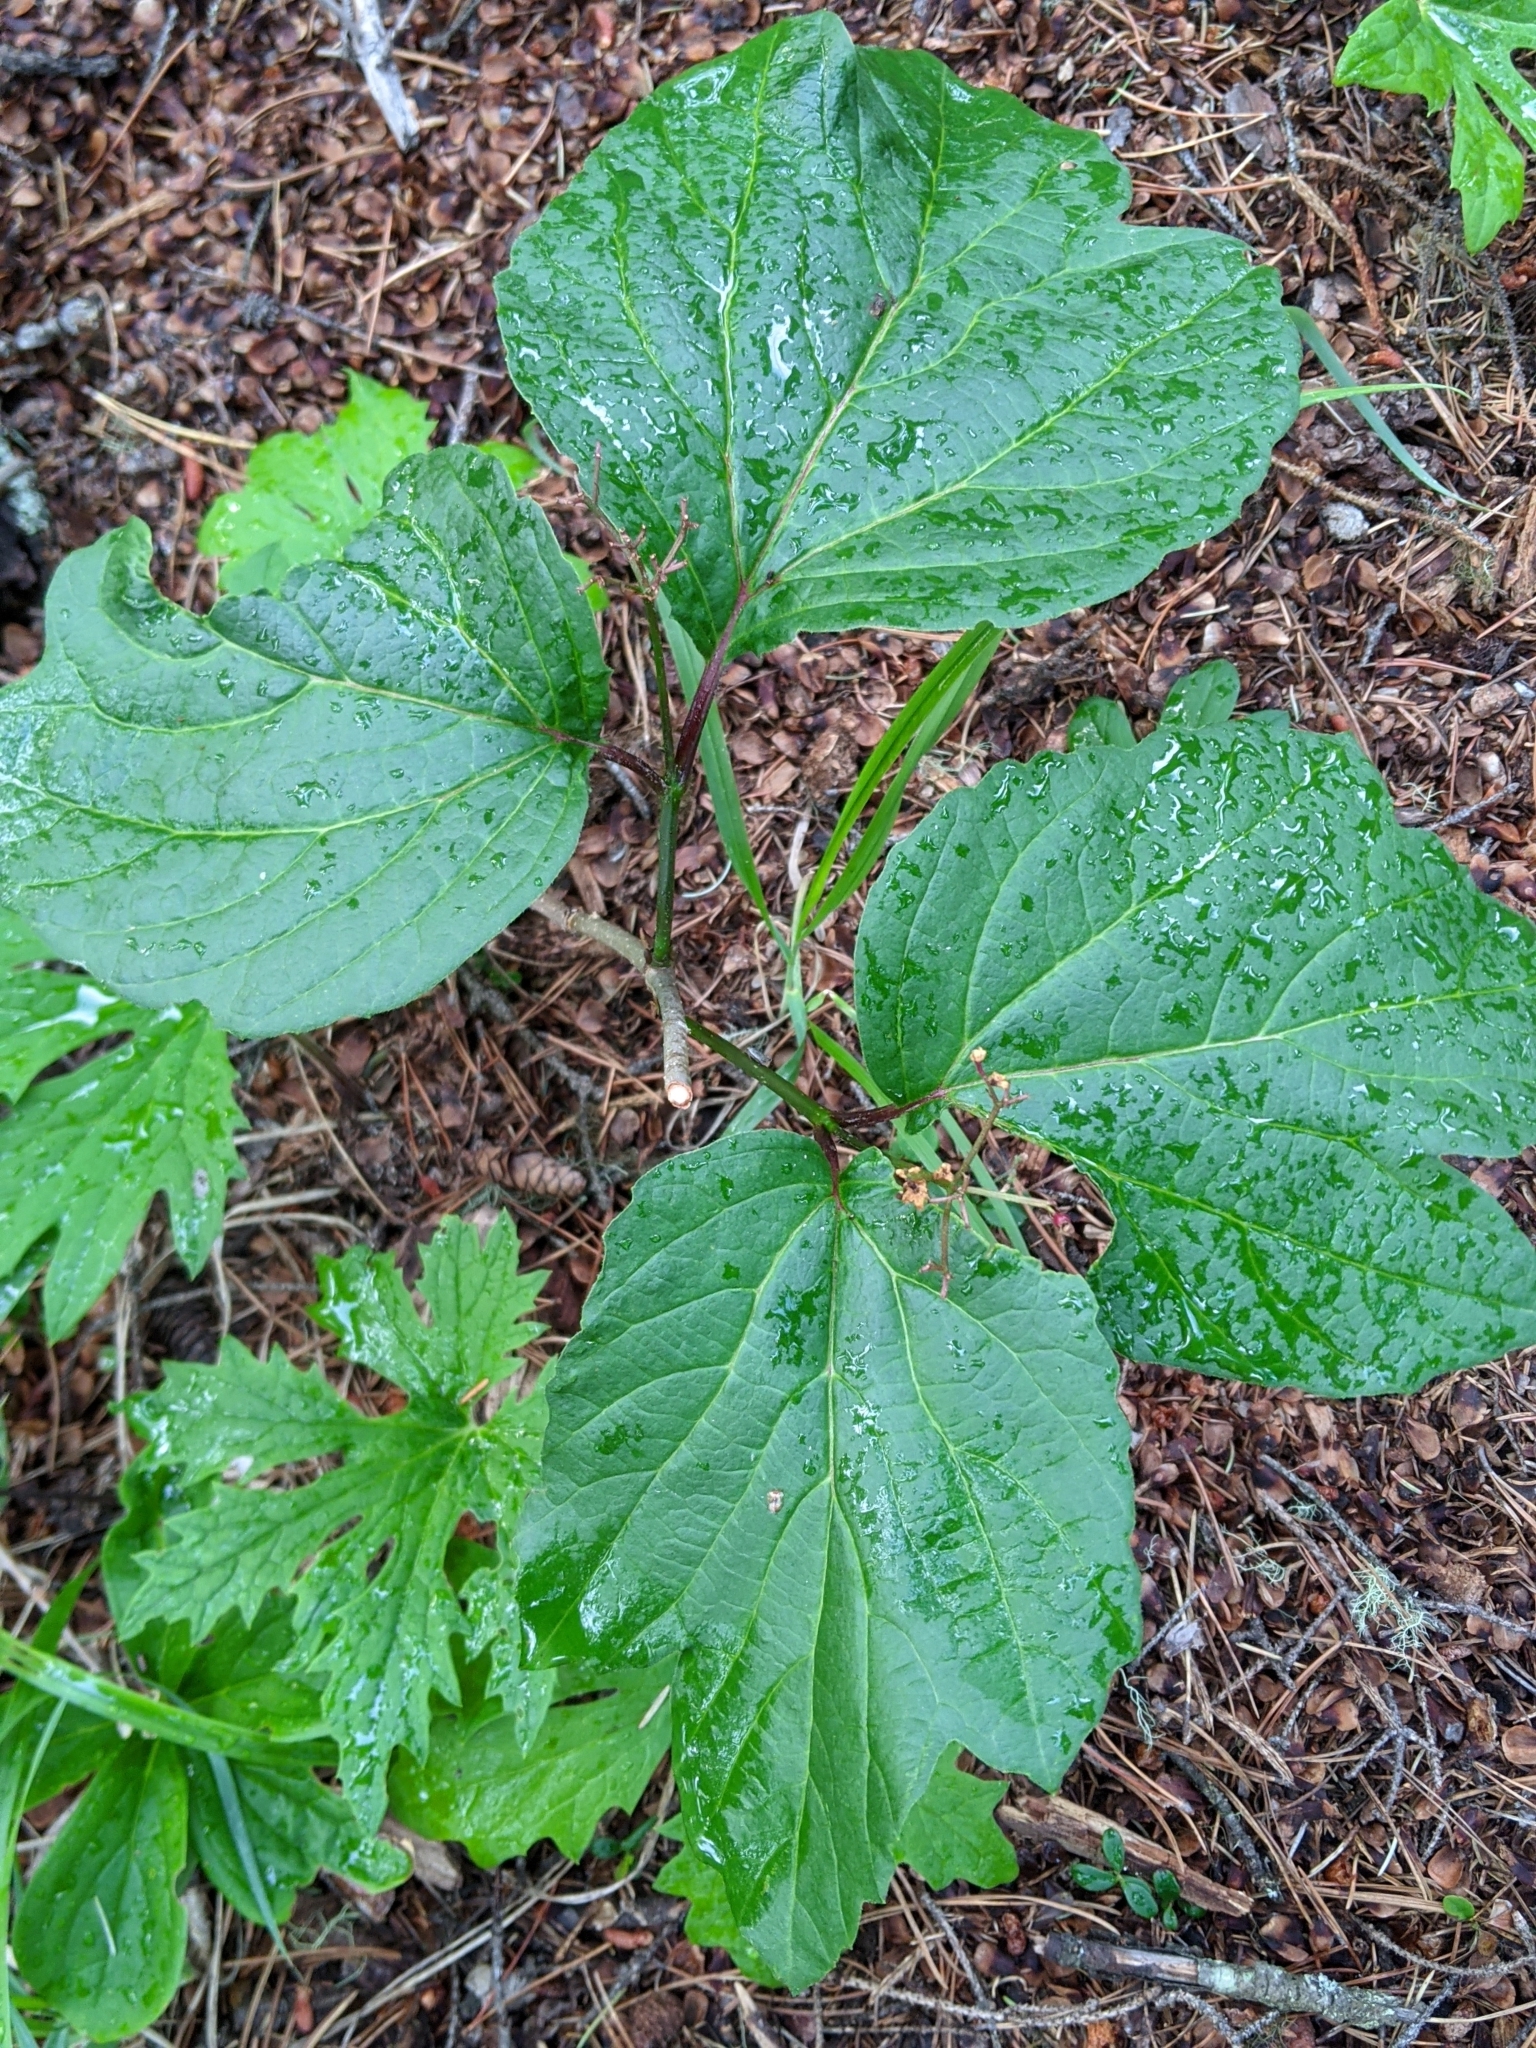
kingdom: Plantae
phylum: Tracheophyta
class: Magnoliopsida
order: Dipsacales
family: Viburnaceae
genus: Viburnum
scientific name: Viburnum edule
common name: Mooseberry
